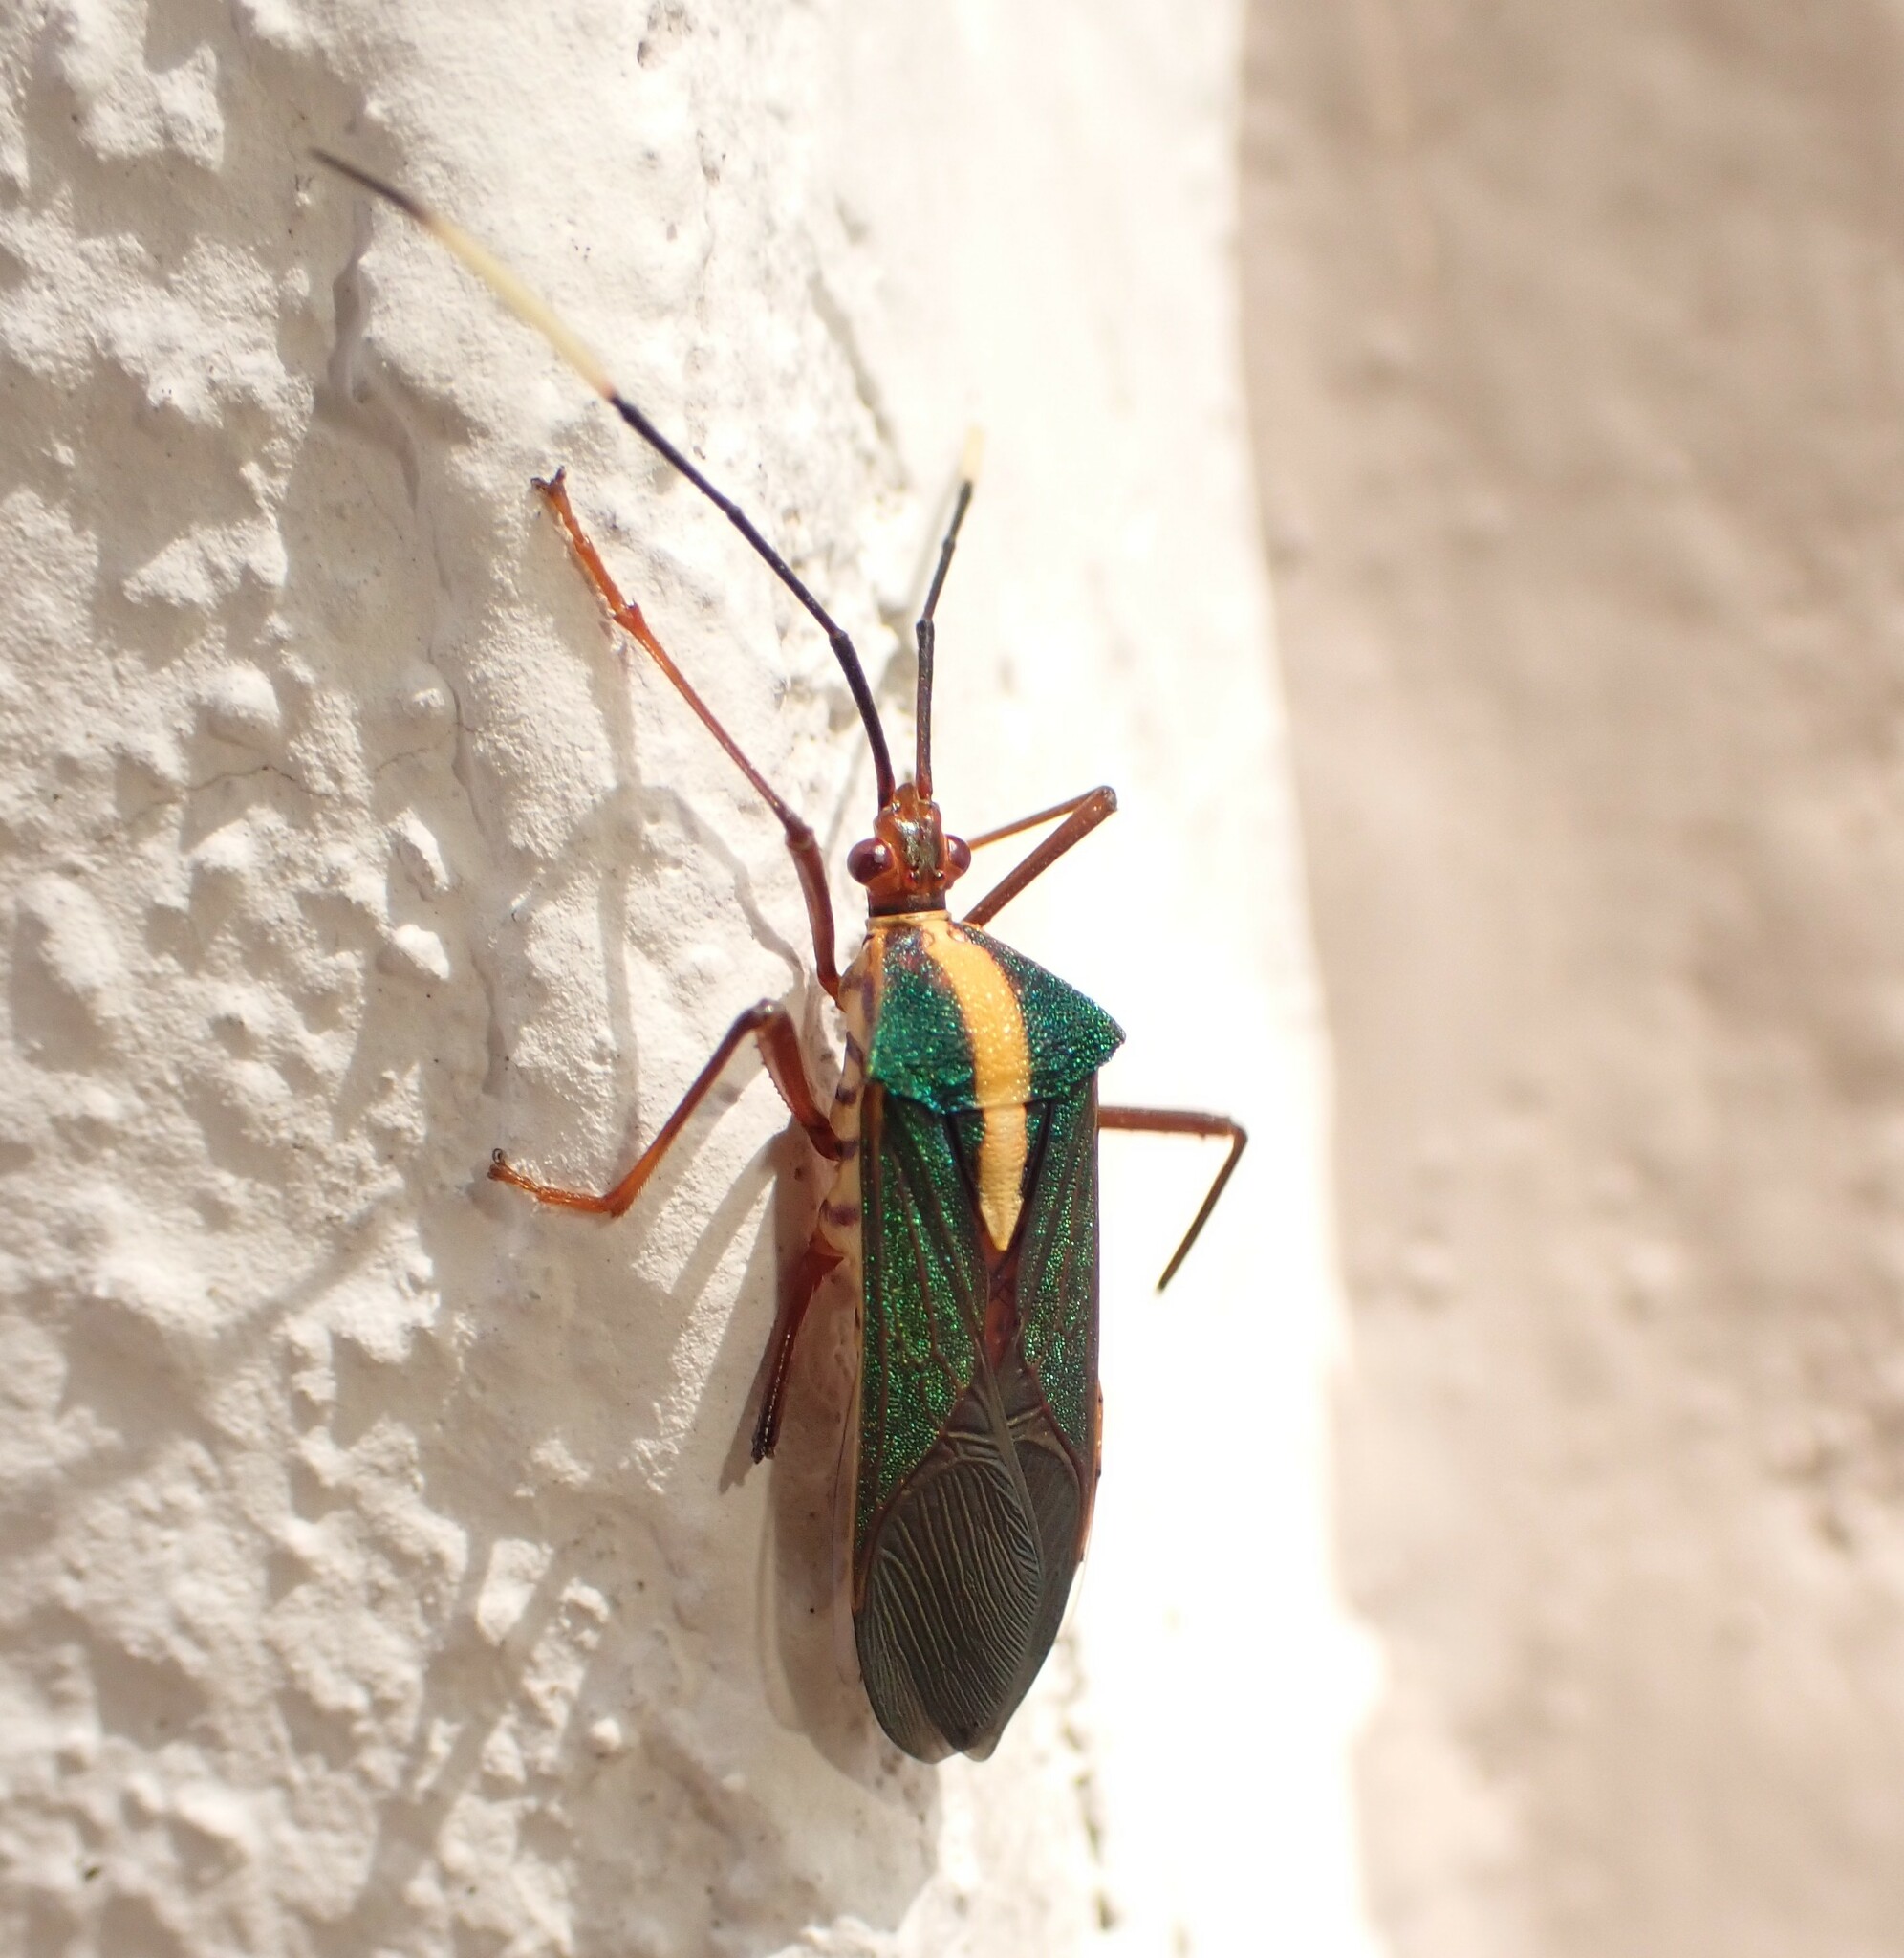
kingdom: Animalia
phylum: Arthropoda
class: Insecta
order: Hemiptera
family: Coreidae
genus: Lucullia
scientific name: Lucullia flavovittata
